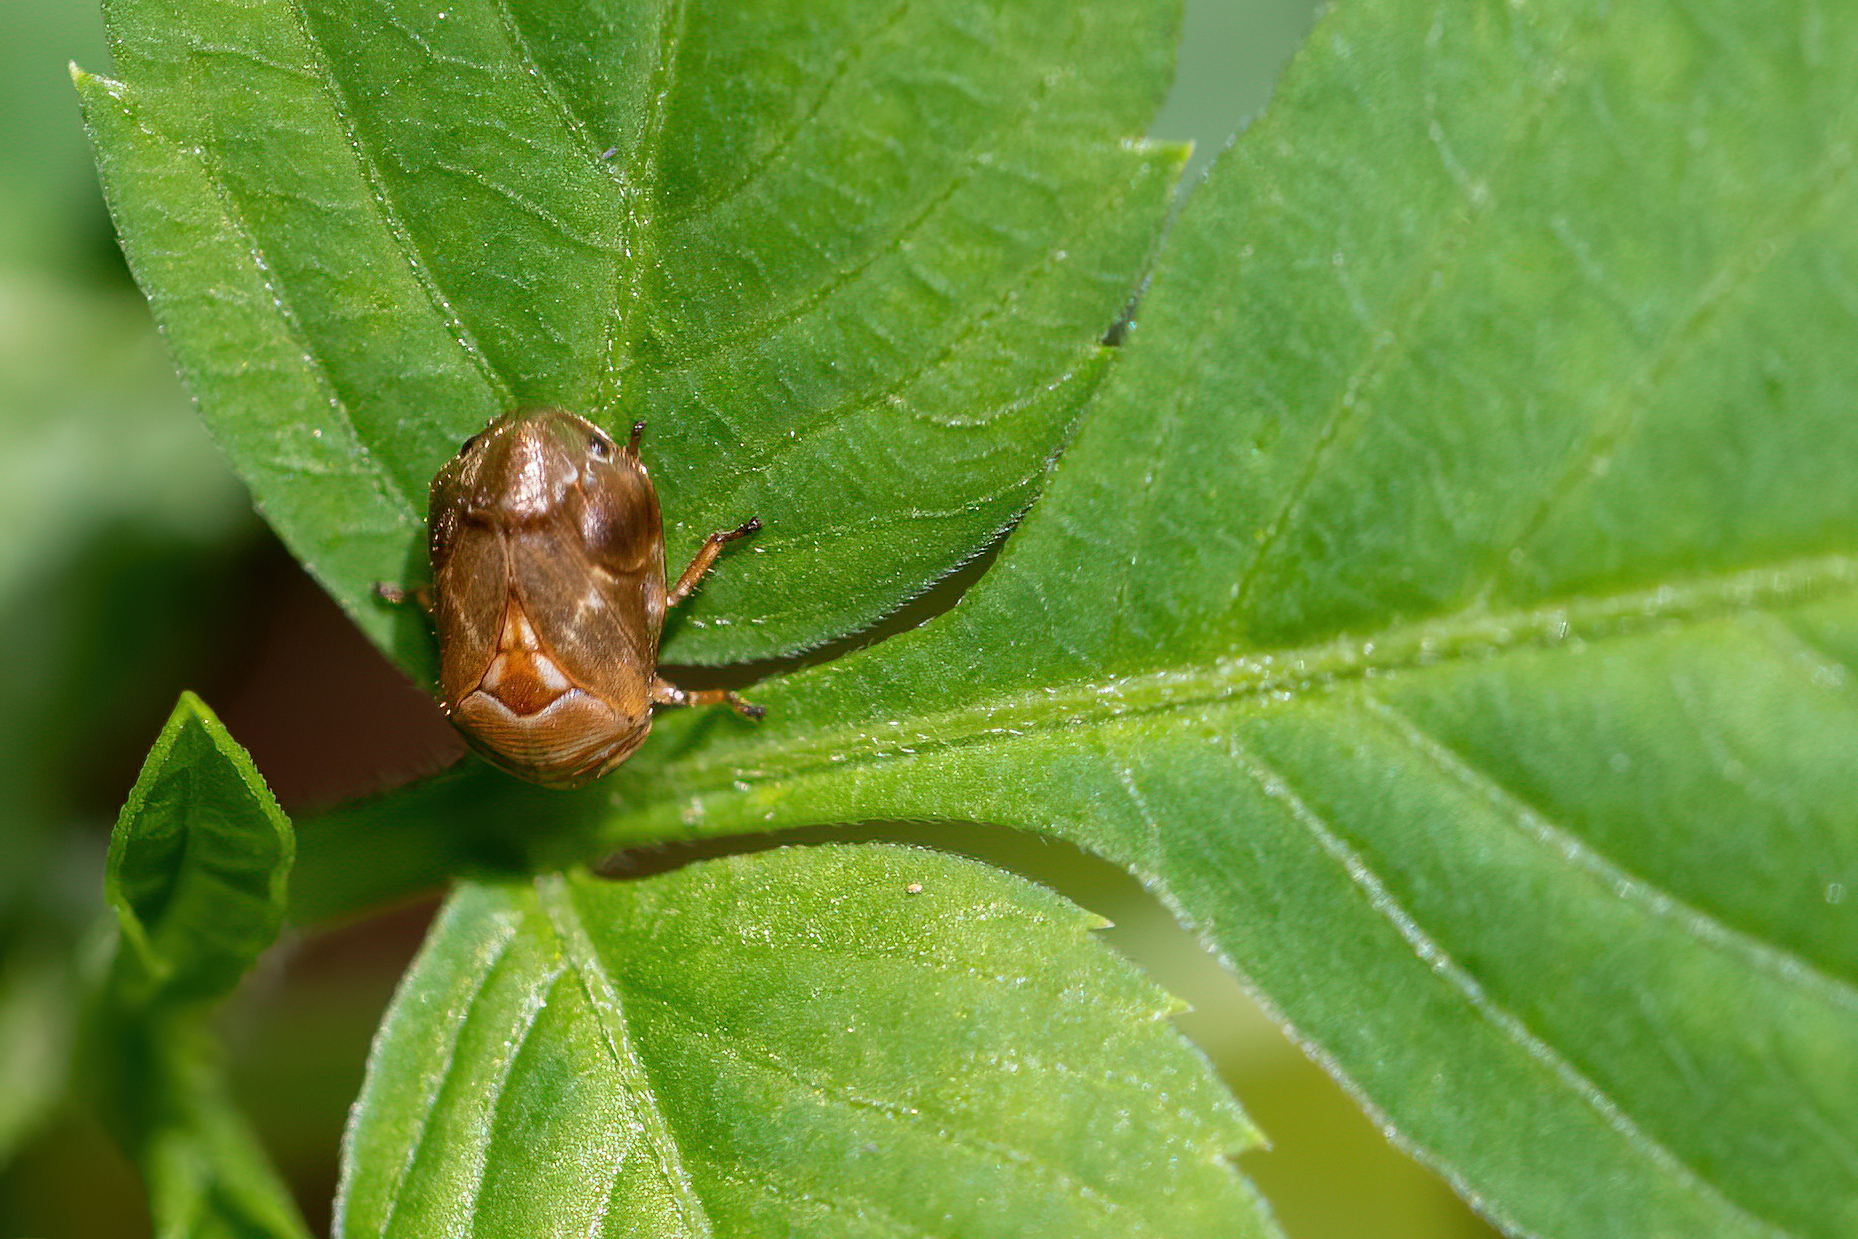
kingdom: Animalia
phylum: Arthropoda
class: Insecta
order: Hemiptera
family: Clastopteridae
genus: Clastoptera
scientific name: Clastoptera querci
